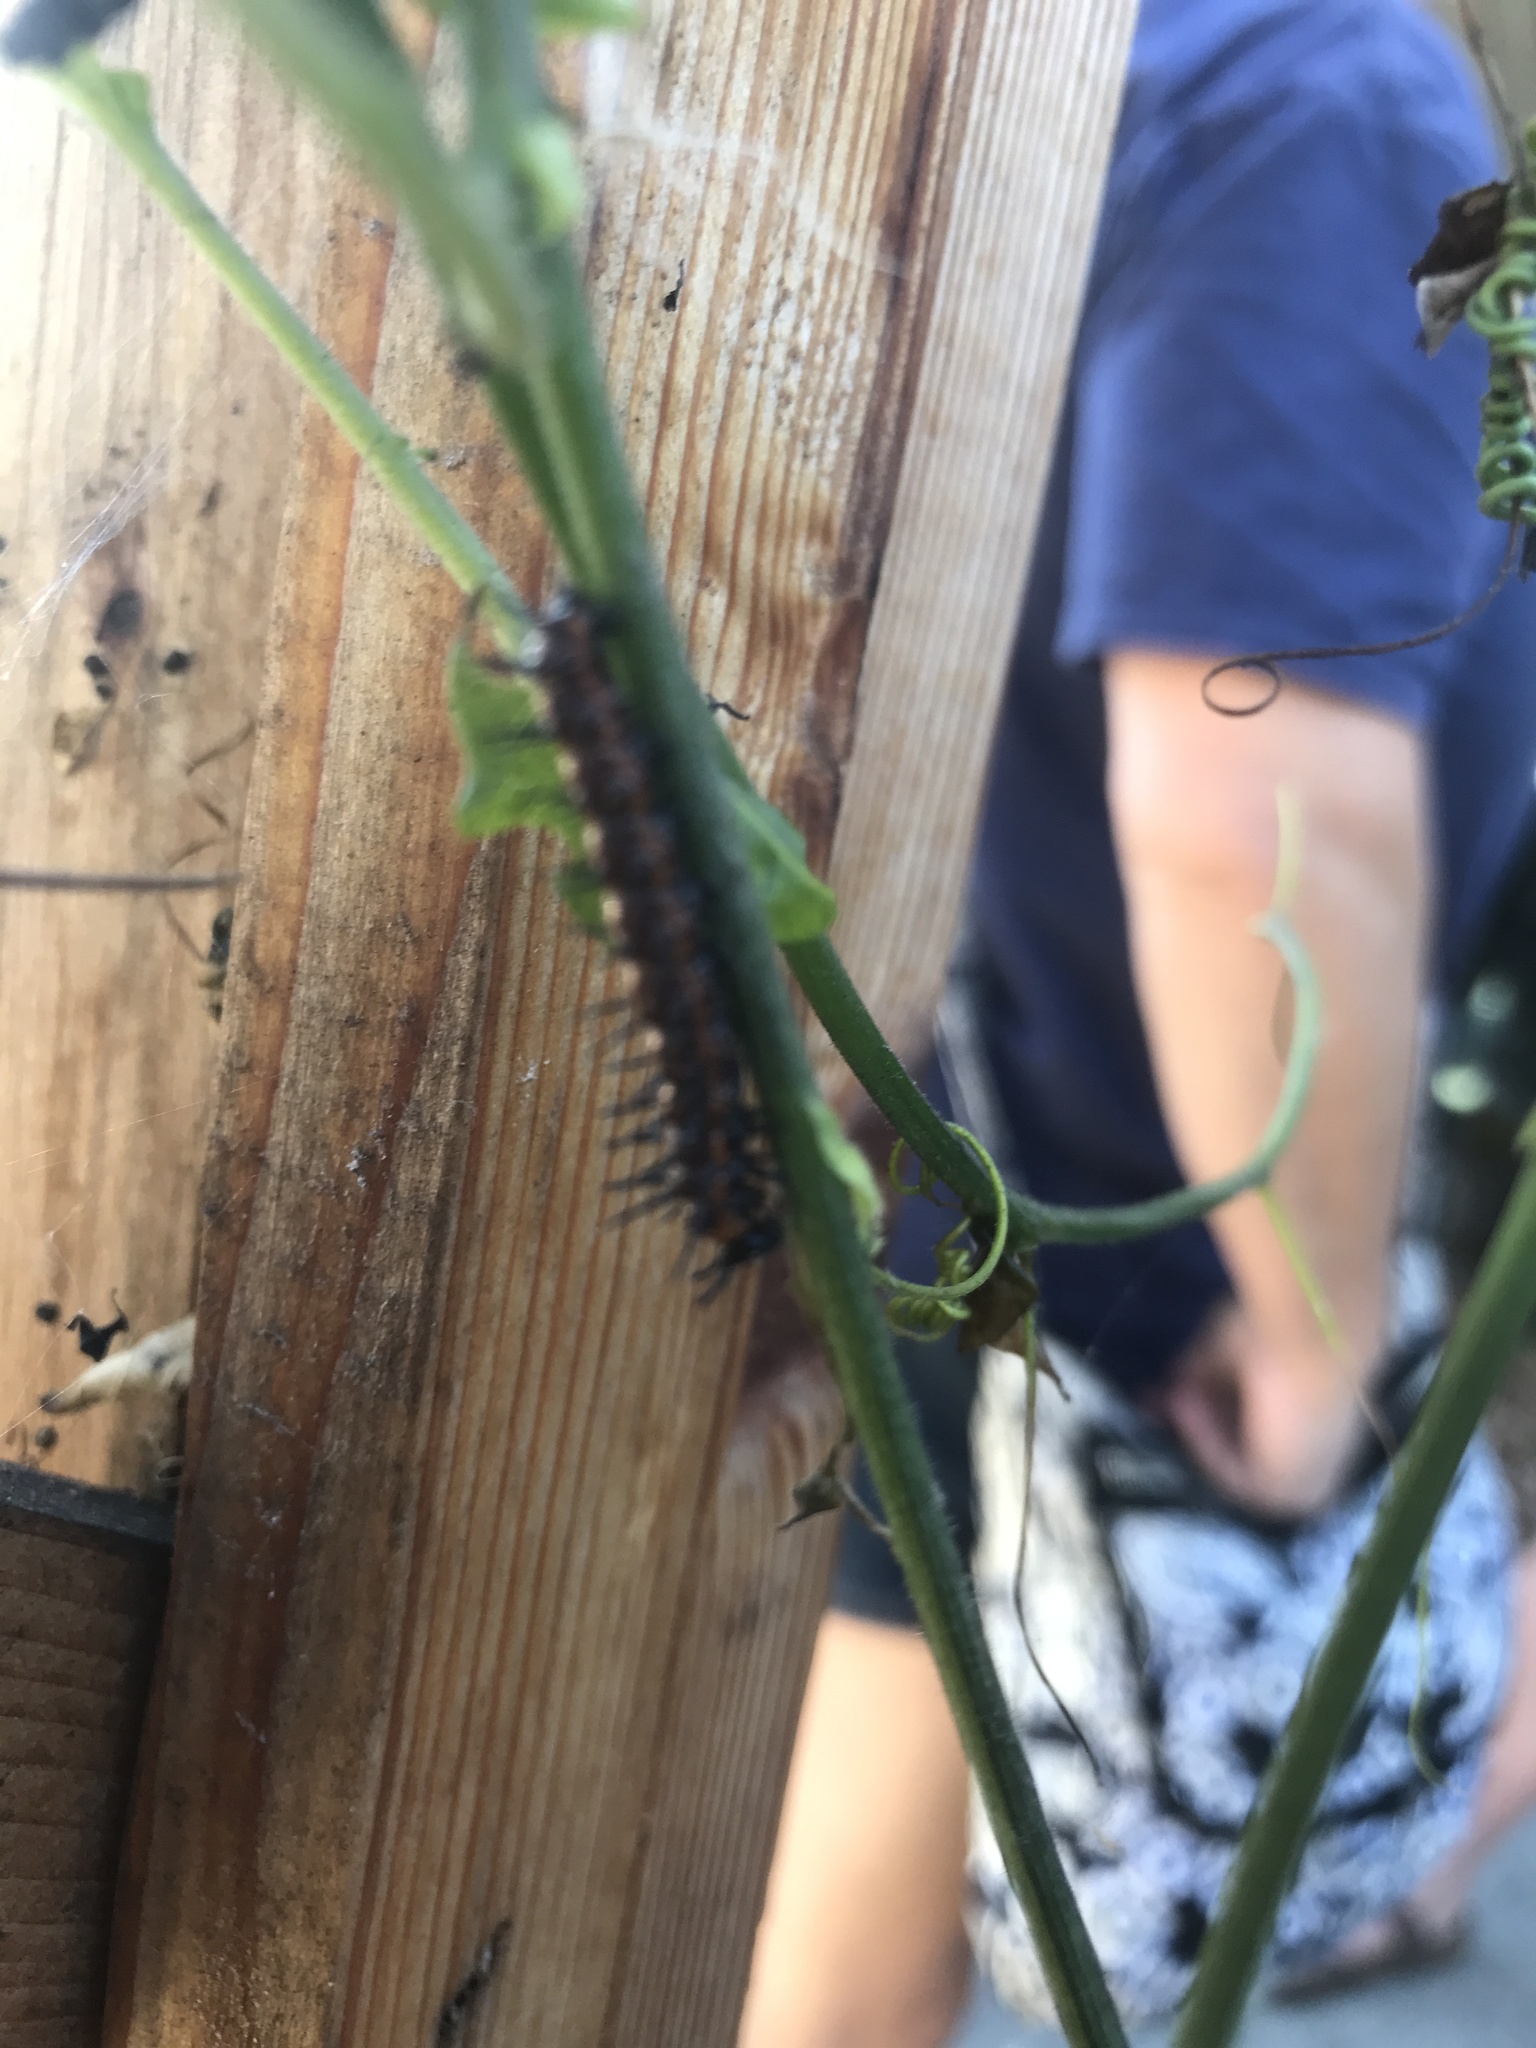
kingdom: Animalia
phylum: Arthropoda
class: Insecta
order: Lepidoptera
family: Nymphalidae
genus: Dione
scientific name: Dione vanillae
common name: Gulf fritillary
